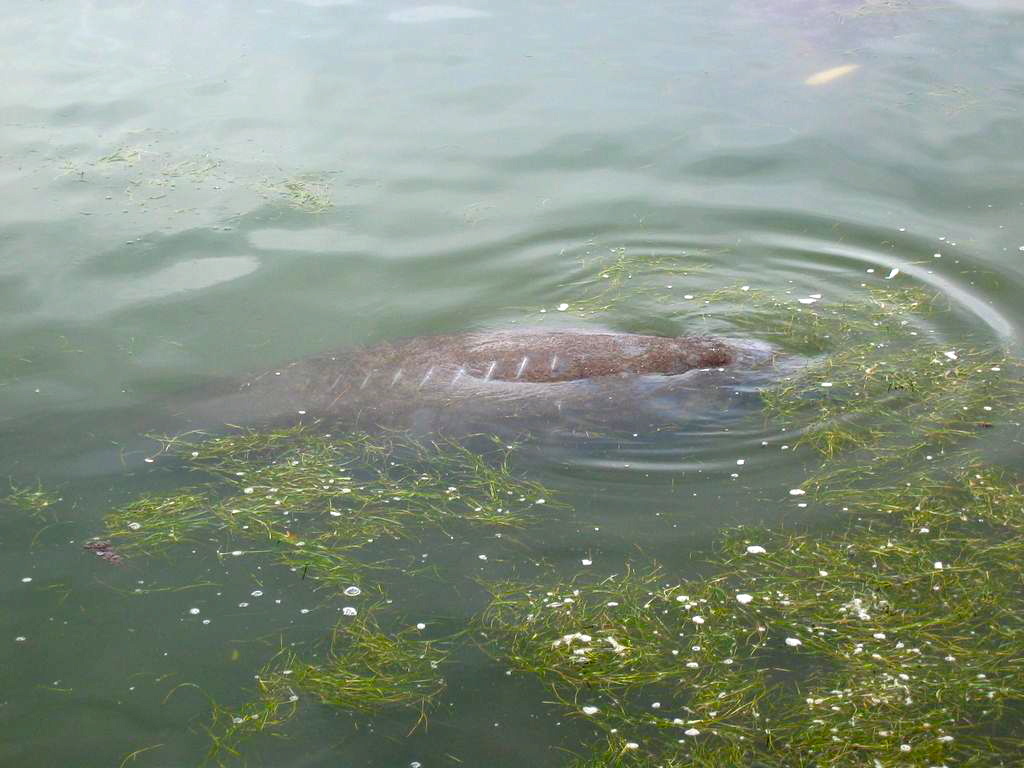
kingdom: Animalia
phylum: Chordata
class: Mammalia
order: Sirenia
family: Trichechidae
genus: Trichechus
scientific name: Trichechus manatus
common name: West indian manatee
